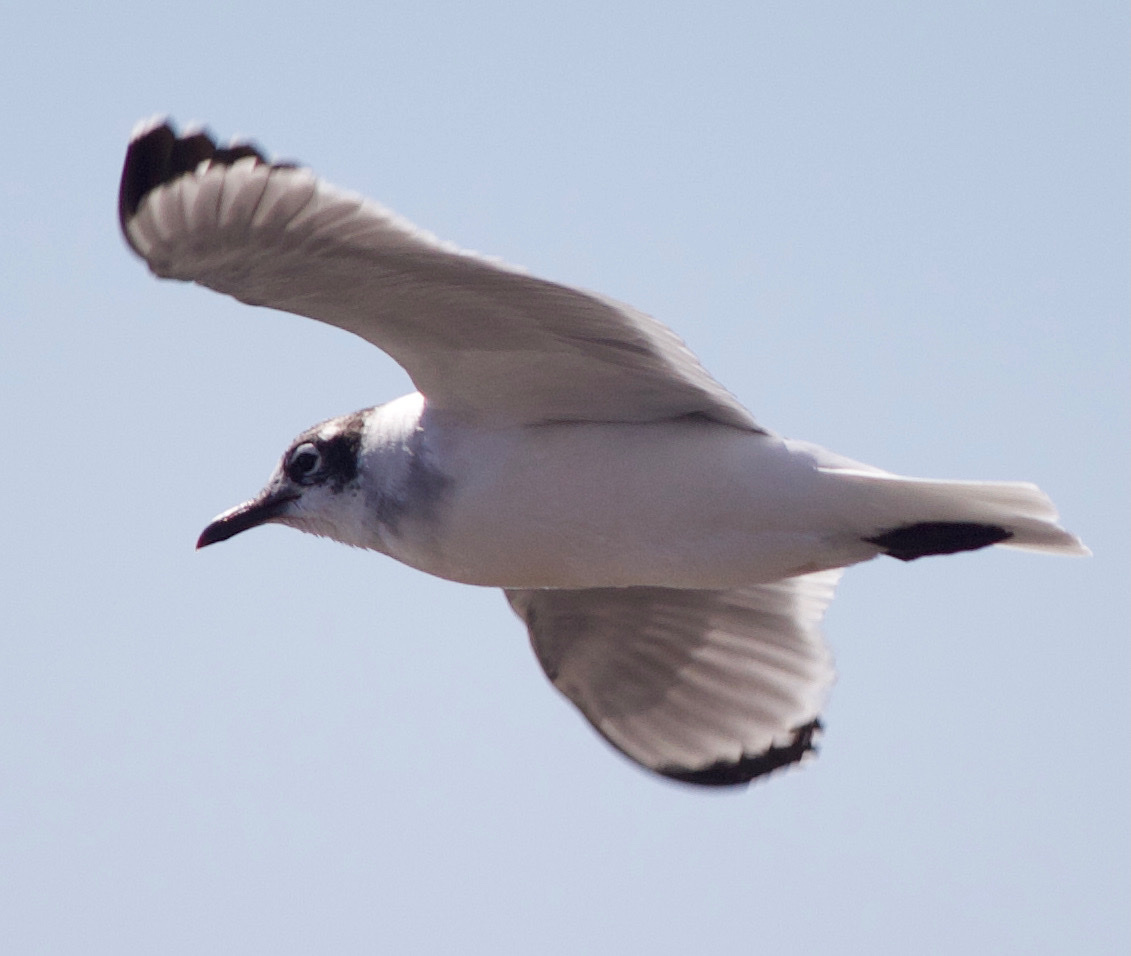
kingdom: Animalia
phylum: Chordata
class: Aves
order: Charadriiformes
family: Laridae
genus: Leucophaeus
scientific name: Leucophaeus pipixcan
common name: Franklin's gull
